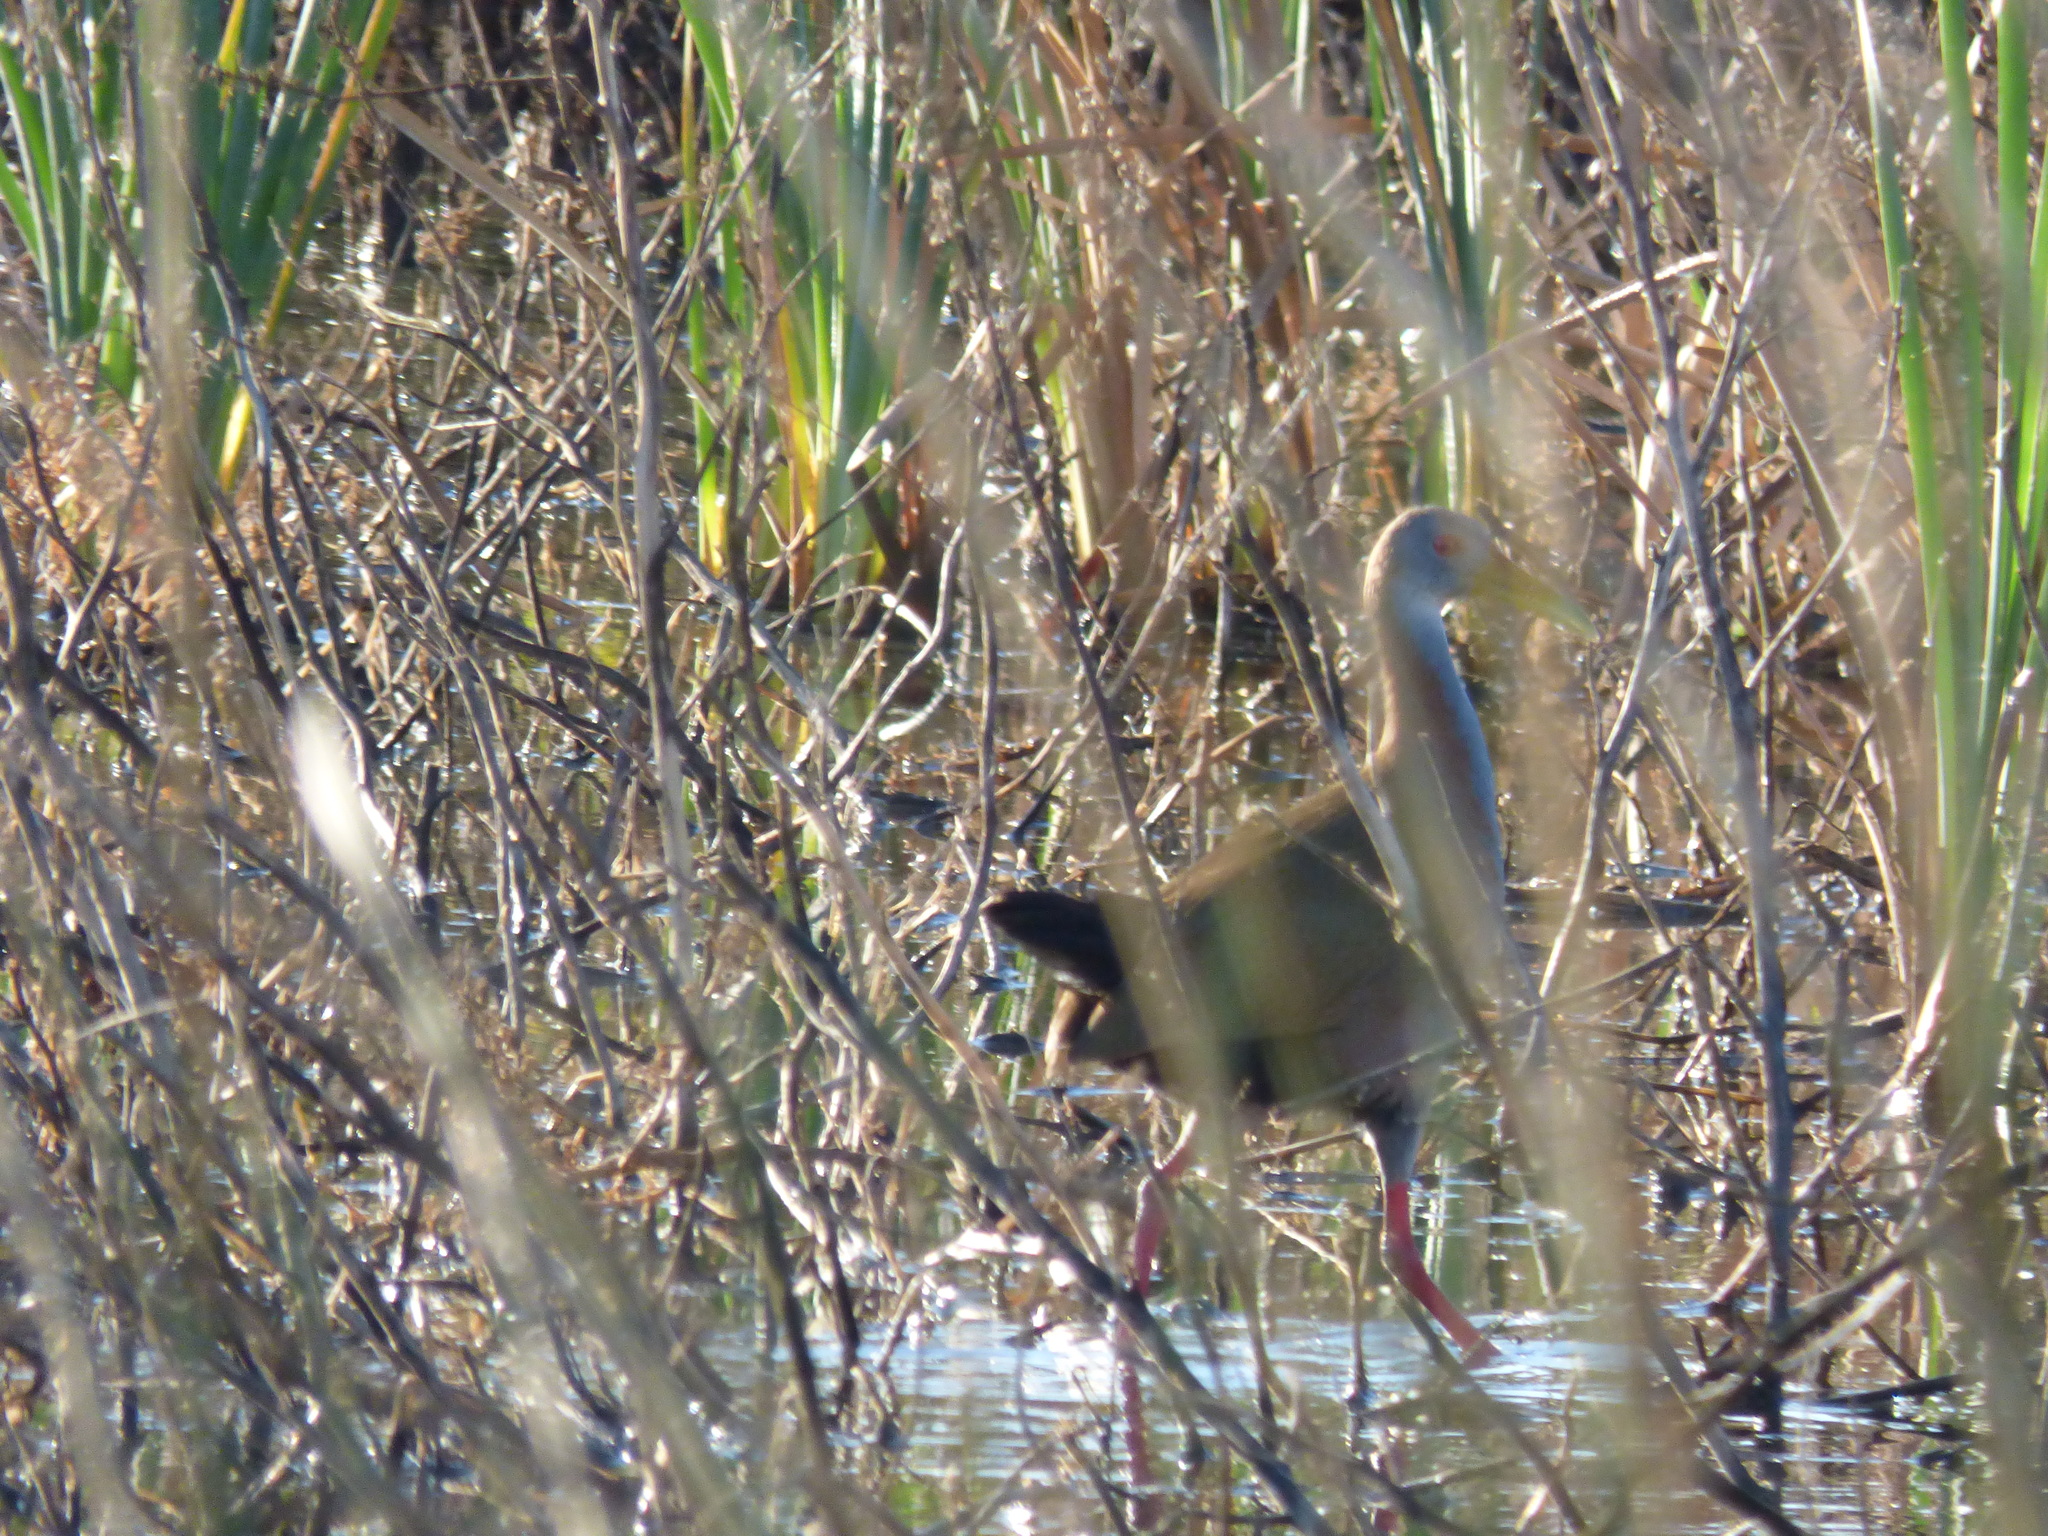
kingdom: Animalia
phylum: Chordata
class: Aves
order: Gruiformes
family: Rallidae
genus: Aramides
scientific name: Aramides ypecaha
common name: Giant wood rail
